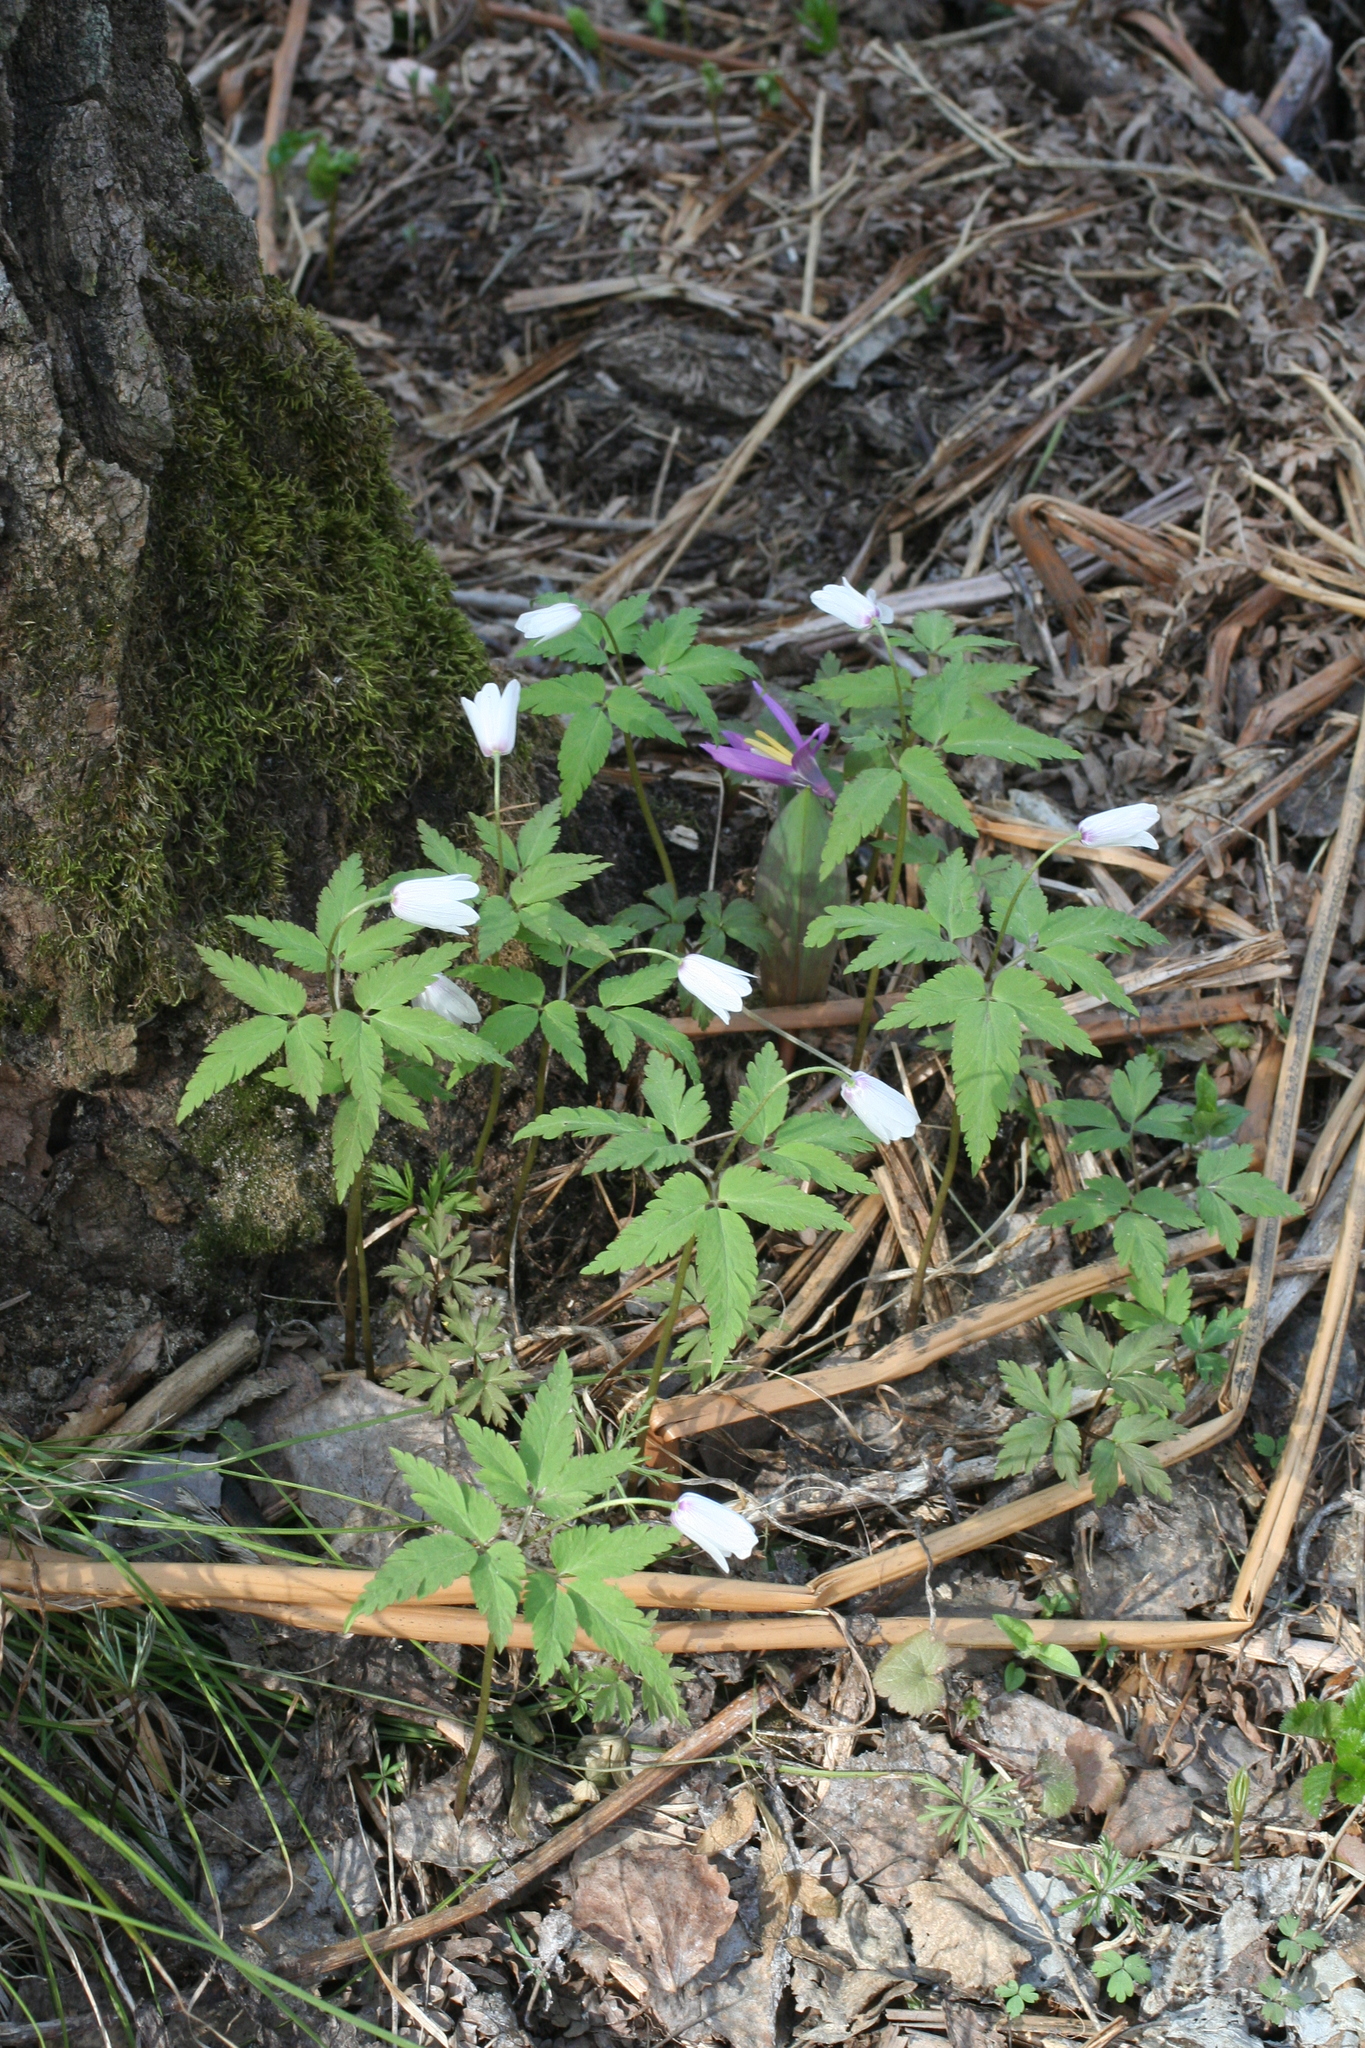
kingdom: Plantae
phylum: Tracheophyta
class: Magnoliopsida
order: Ranunculales
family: Ranunculaceae
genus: Anemone
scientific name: Anemone altaica
